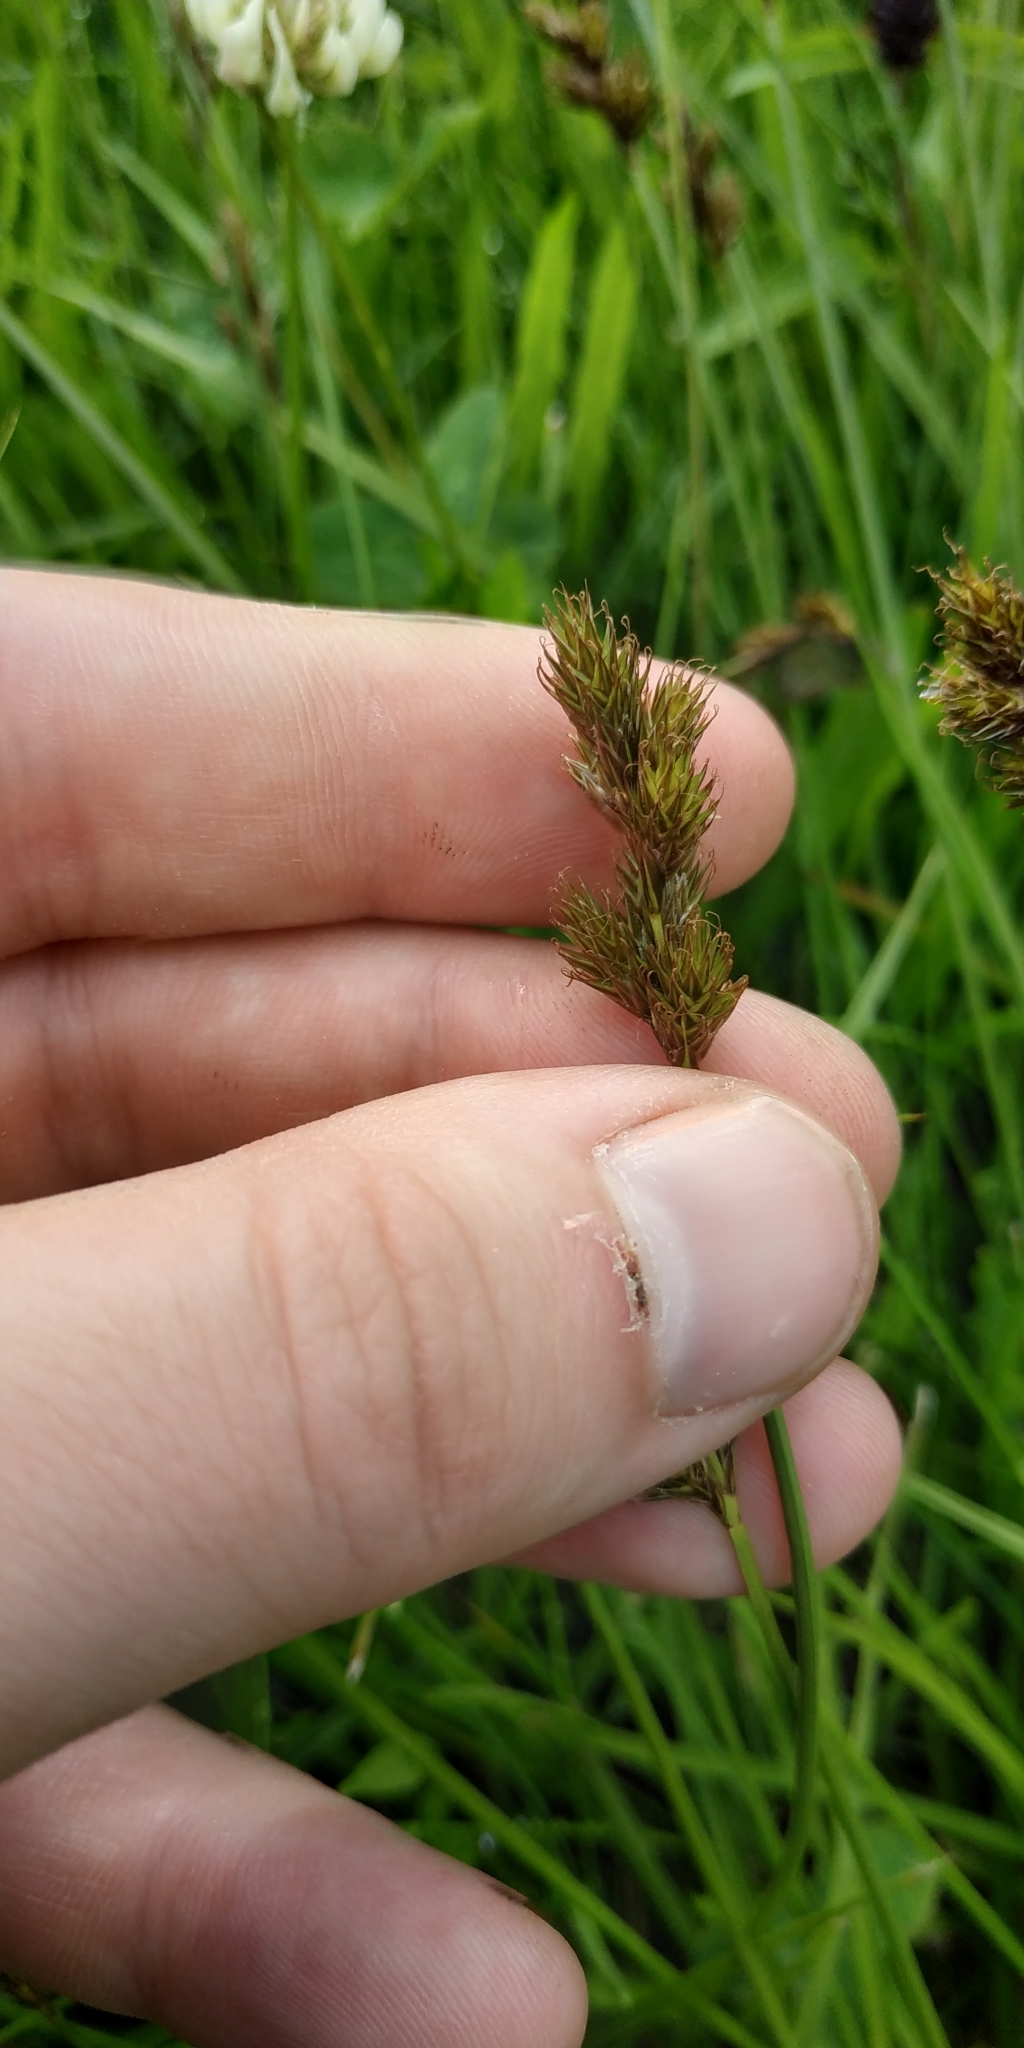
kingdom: Plantae
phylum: Tracheophyta
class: Liliopsida
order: Poales
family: Cyperaceae
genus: Carex
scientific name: Carex leporina
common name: Oval sedge
